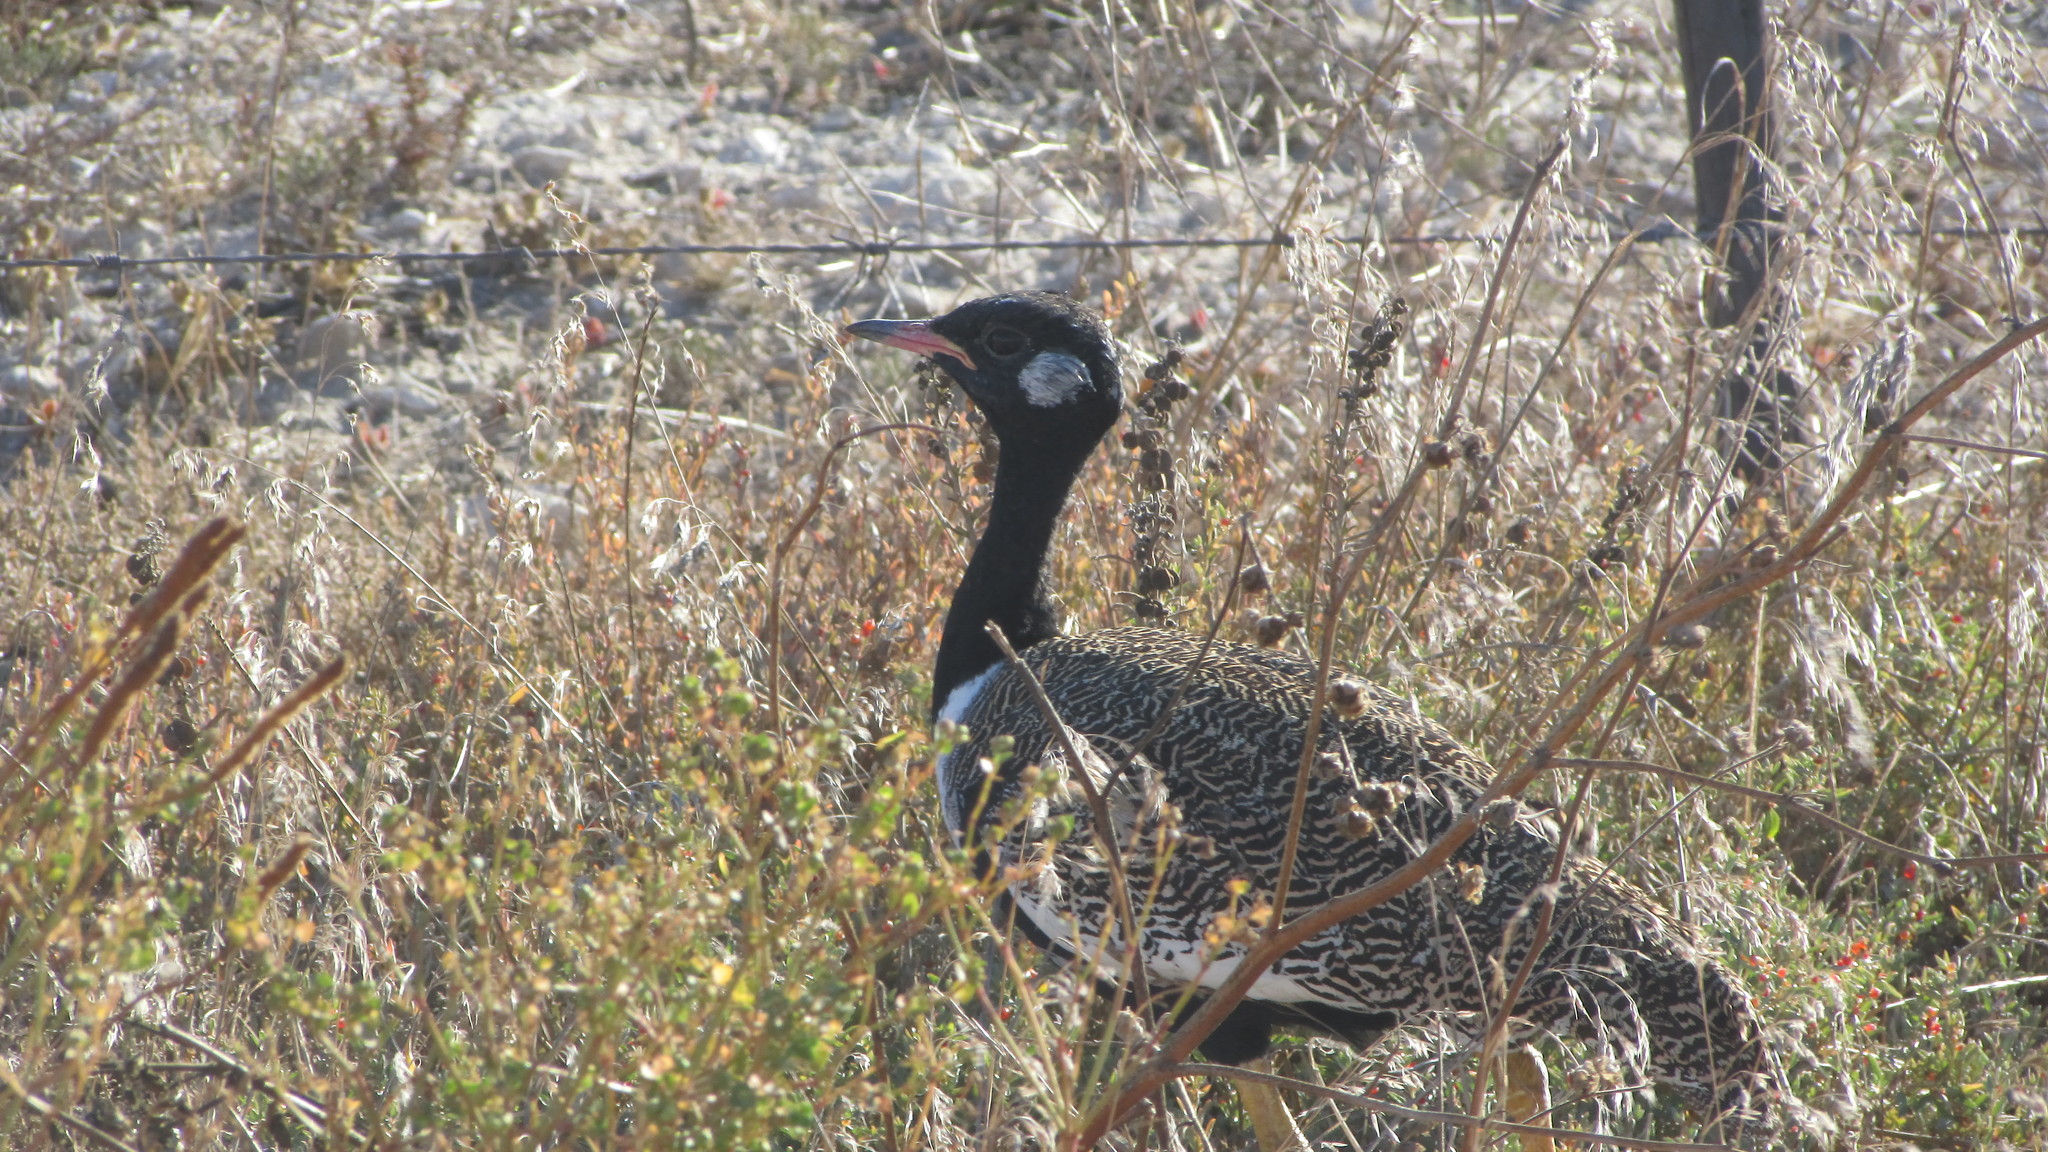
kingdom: Animalia
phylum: Chordata
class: Aves
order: Otidiformes
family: Otididae
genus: Afrotis
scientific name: Afrotis afra
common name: Southern black korhaan
